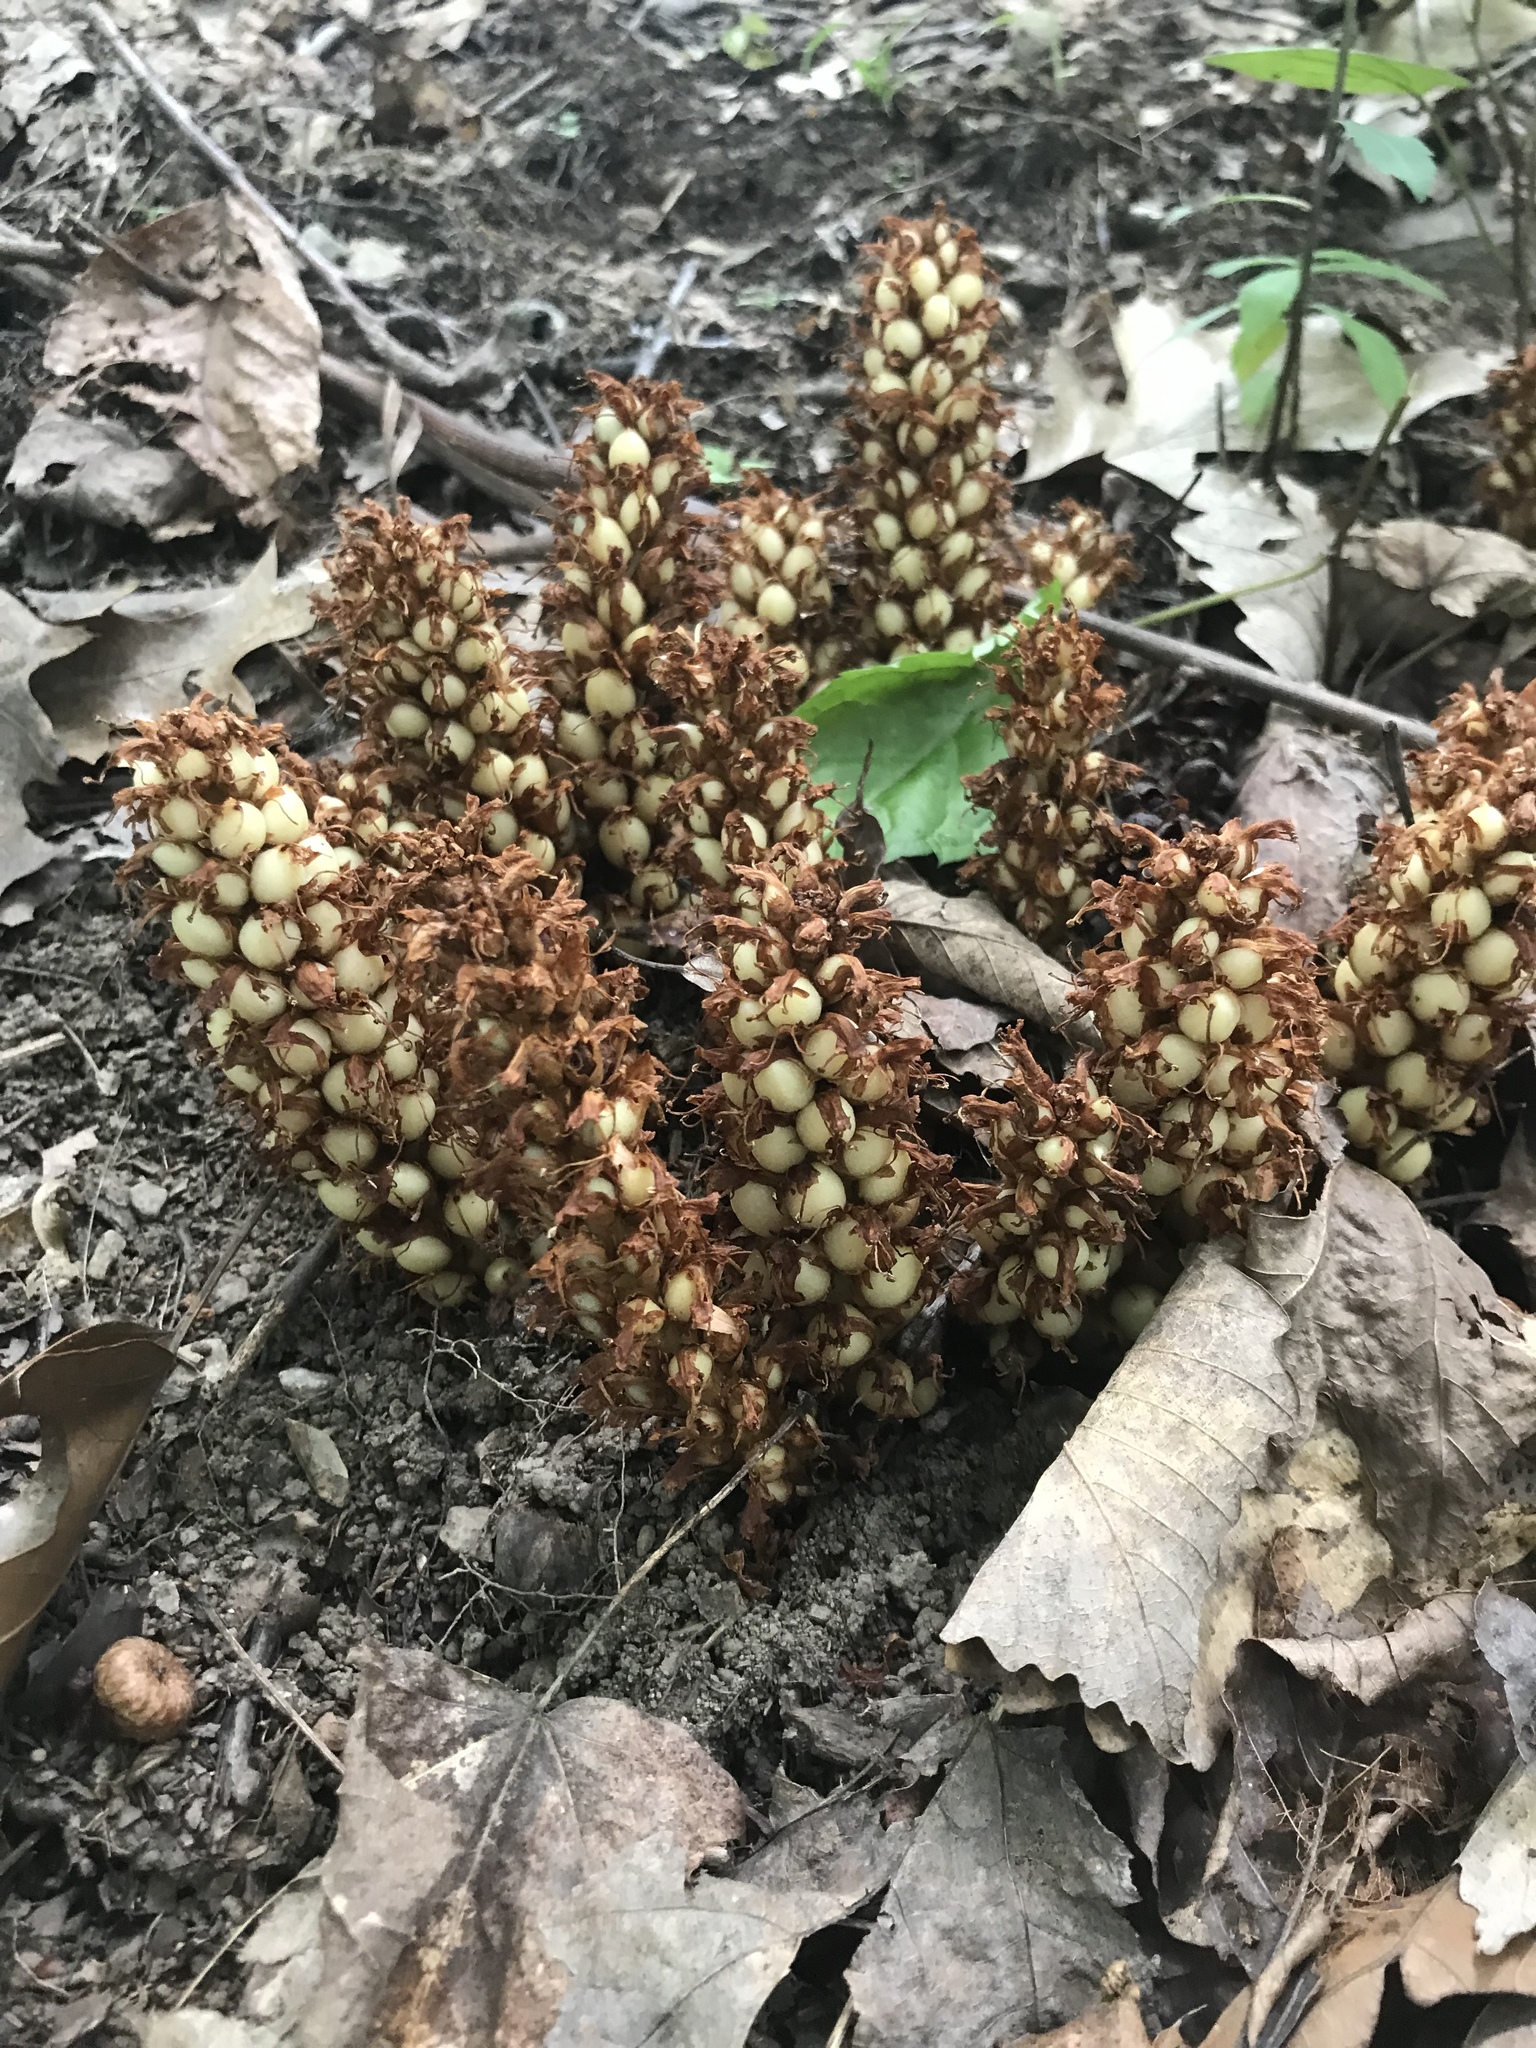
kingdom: Plantae
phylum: Tracheophyta
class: Magnoliopsida
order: Lamiales
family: Orobanchaceae
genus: Conopholis
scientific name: Conopholis americana
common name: American cancer-root
